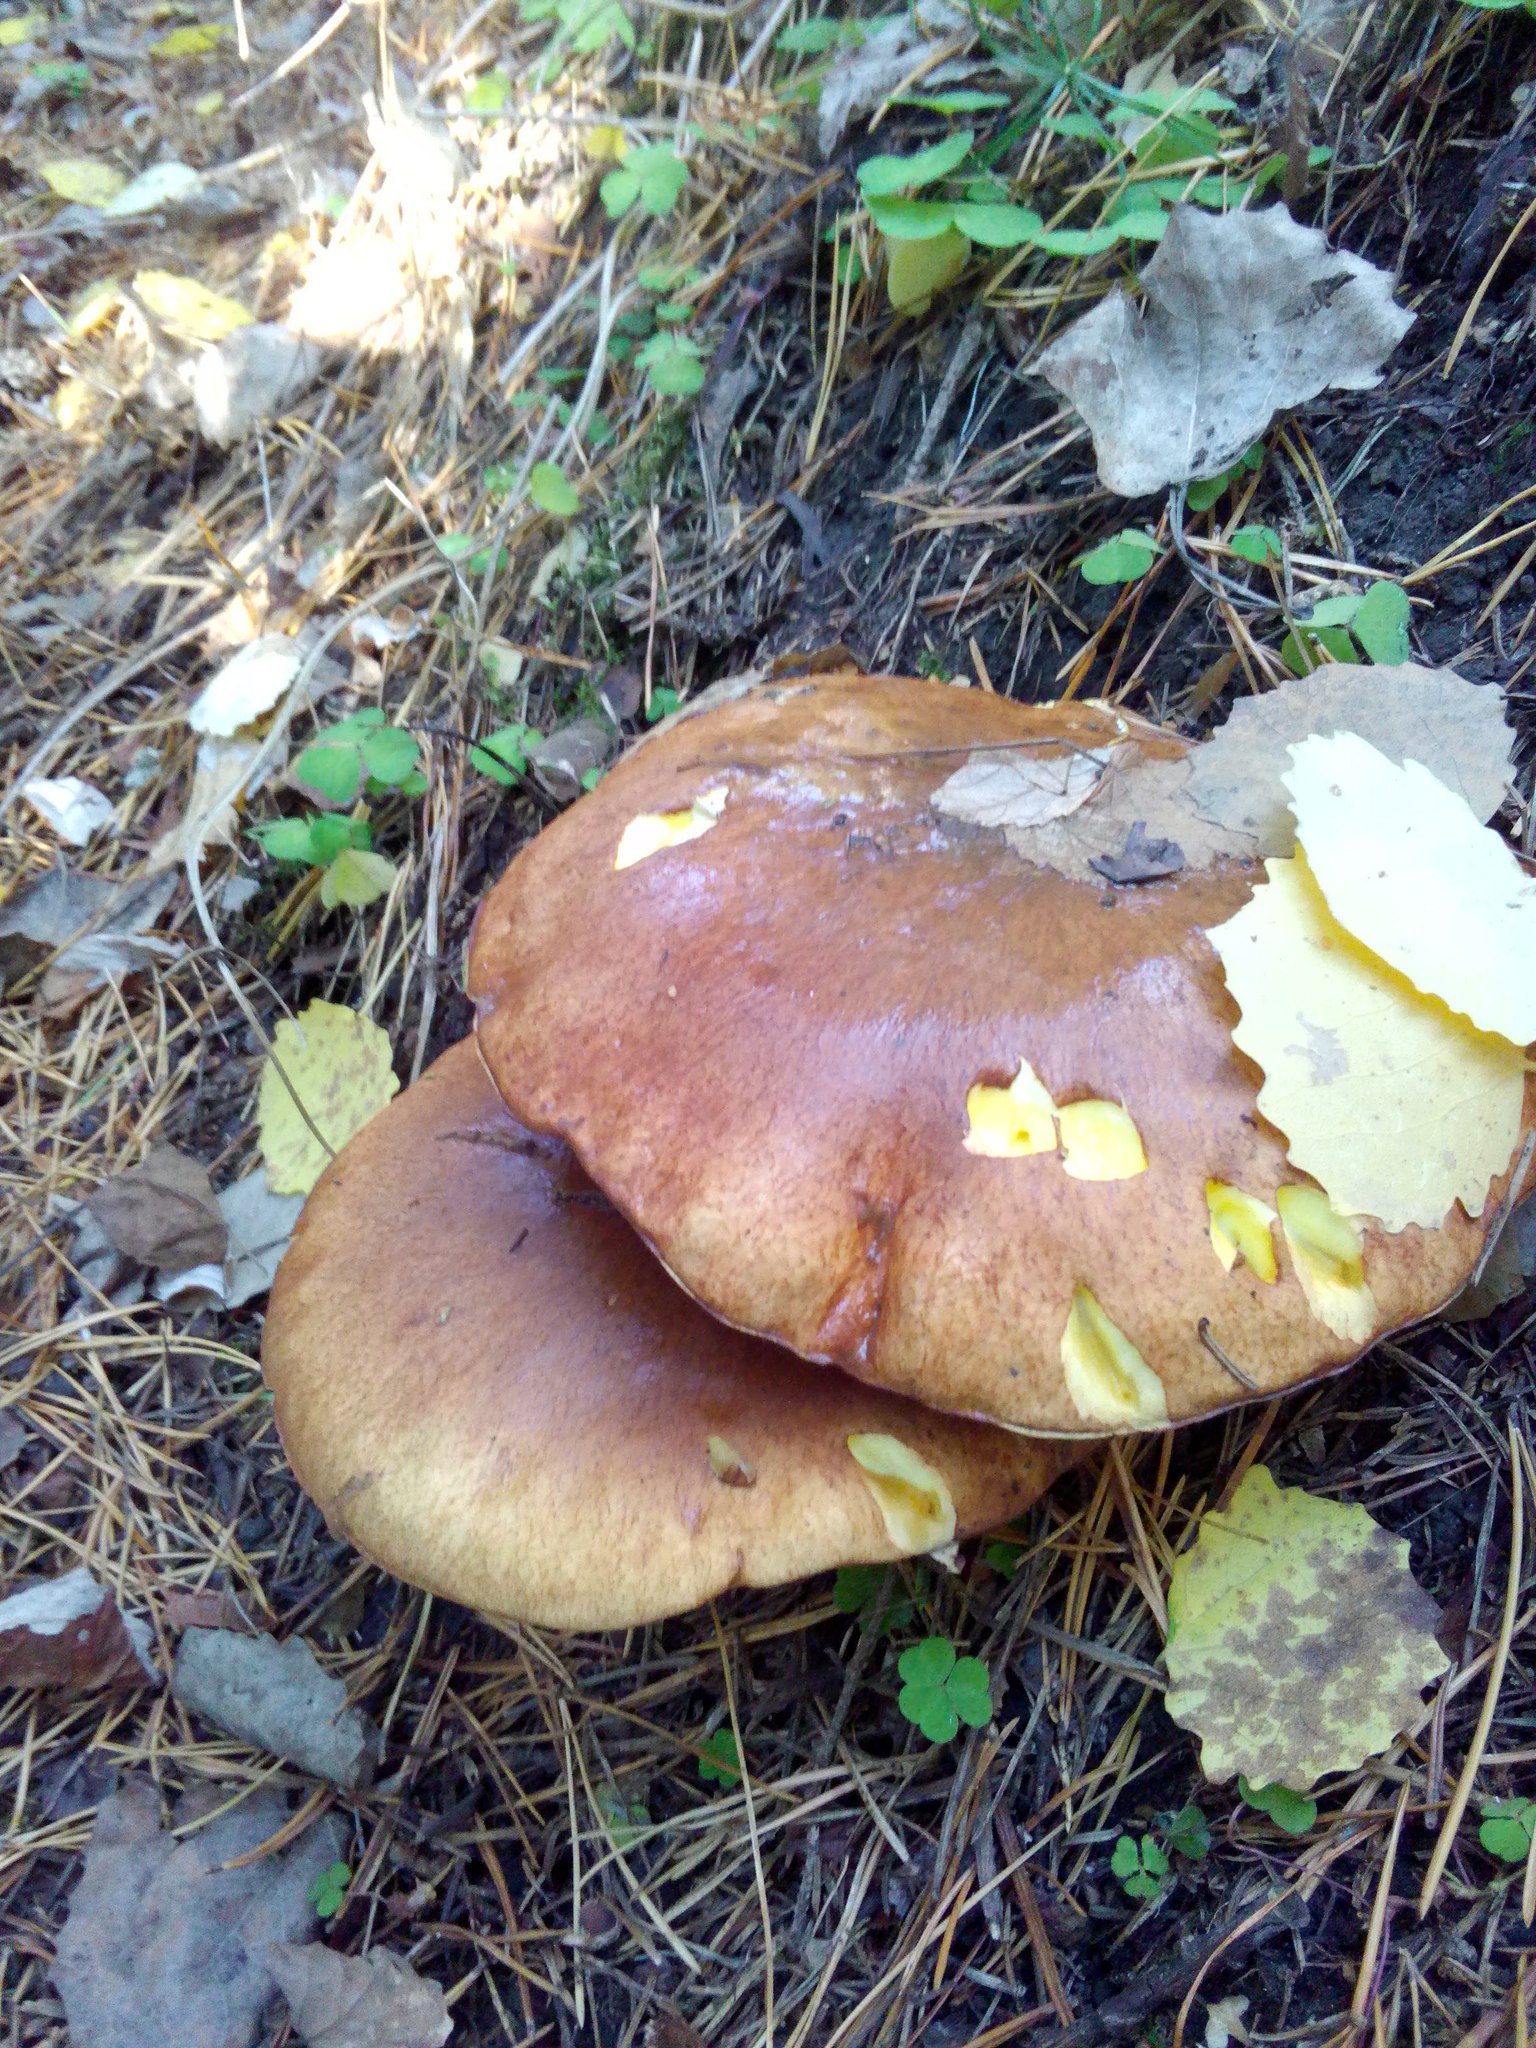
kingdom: Fungi
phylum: Basidiomycota
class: Agaricomycetes
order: Boletales
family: Suillaceae
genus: Suillus
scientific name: Suillus luteus
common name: Slippery jack
